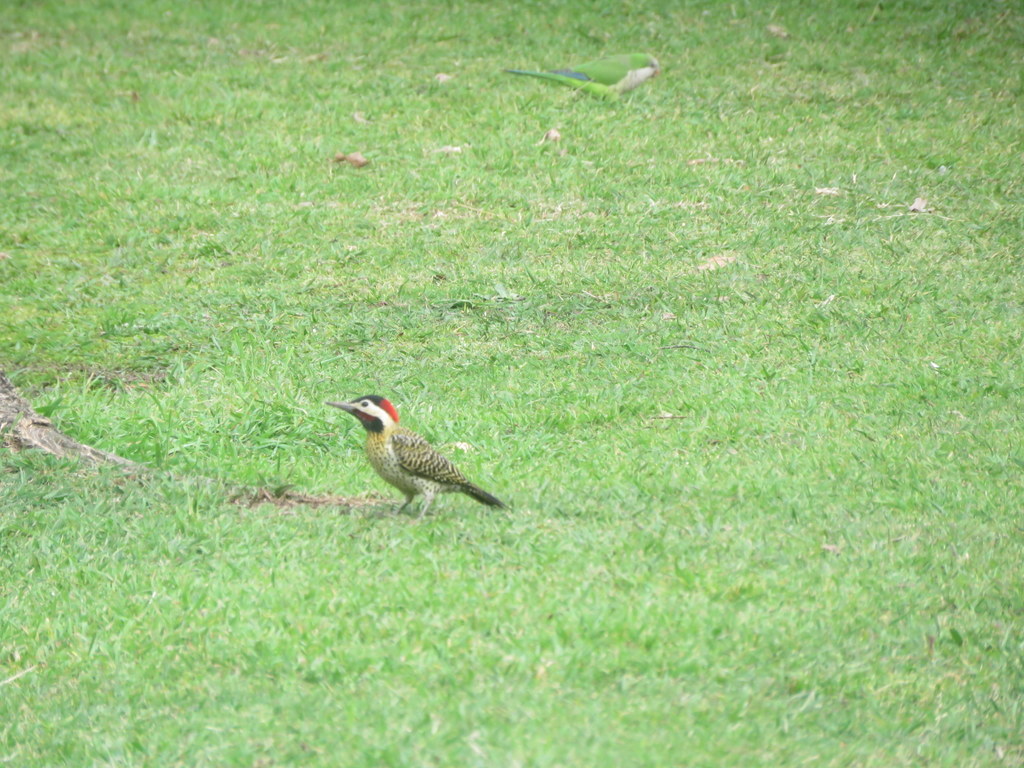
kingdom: Animalia
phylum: Chordata
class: Aves
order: Piciformes
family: Picidae
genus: Colaptes
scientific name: Colaptes melanochloros
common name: Green-barred woodpecker
